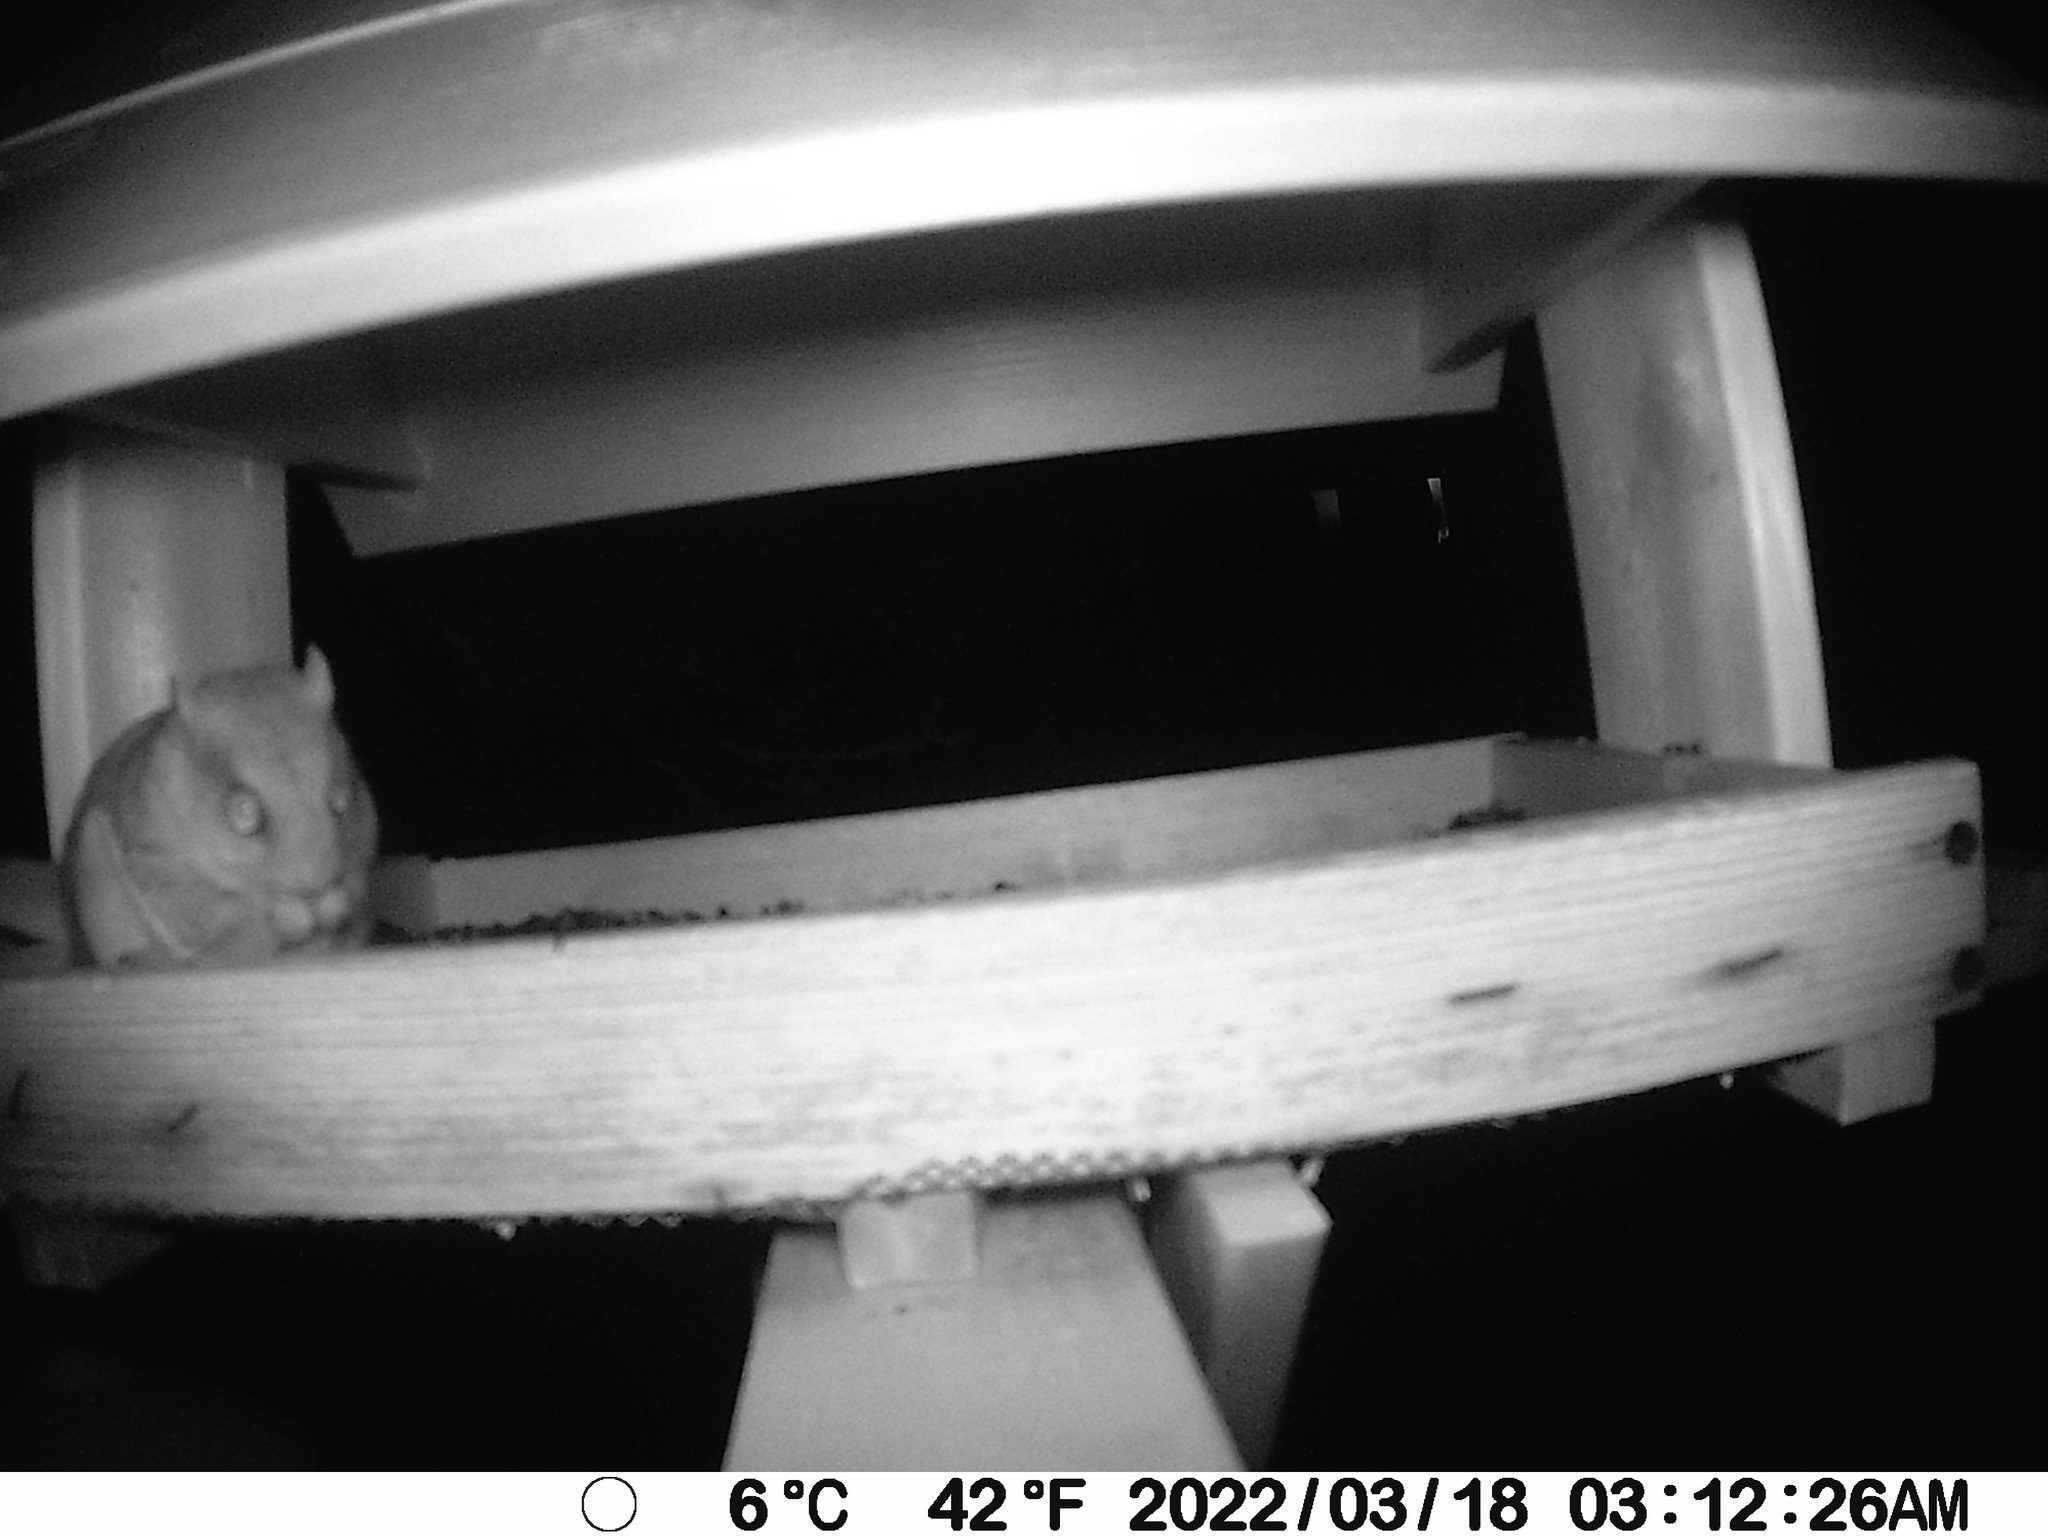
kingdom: Animalia
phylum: Chordata
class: Mammalia
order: Rodentia
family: Sciuridae
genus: Glaucomys
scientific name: Glaucomys sabrinus
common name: Northern flying squirrel
